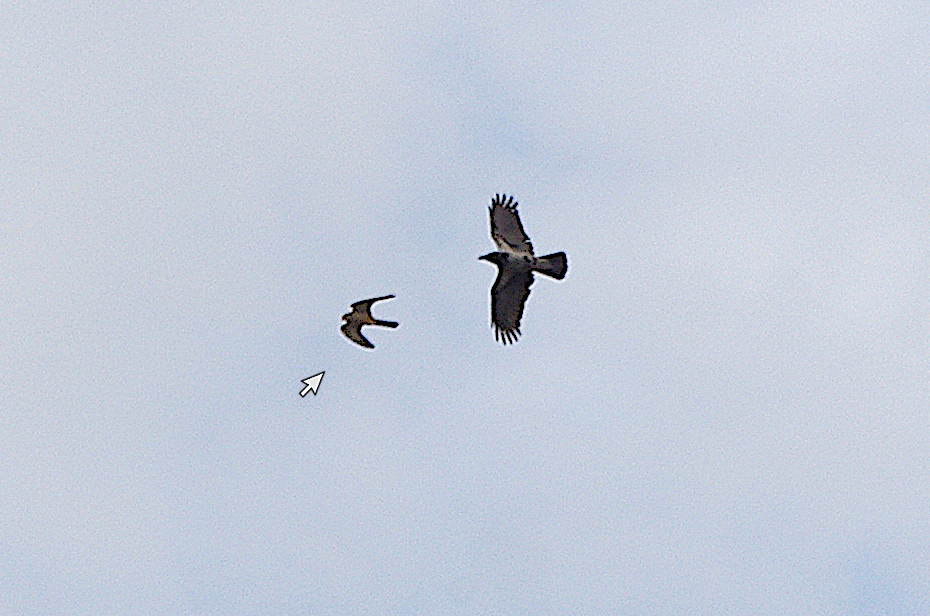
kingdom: Animalia
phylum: Chordata
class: Aves
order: Falconiformes
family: Falconidae
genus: Falco
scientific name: Falco tinnunculus
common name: Common kestrel
